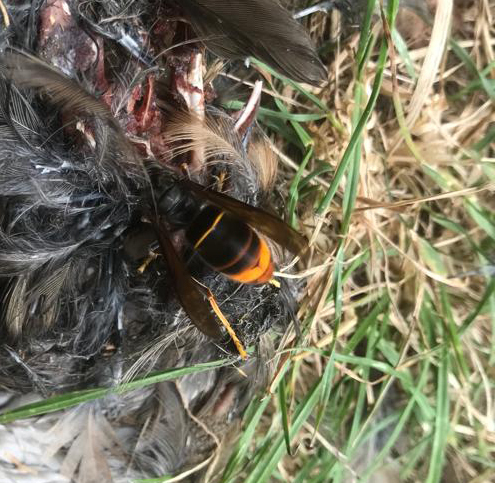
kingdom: Animalia
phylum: Arthropoda
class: Insecta
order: Hymenoptera
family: Vespidae
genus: Vespa
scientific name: Vespa velutina
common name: Asian hornet
